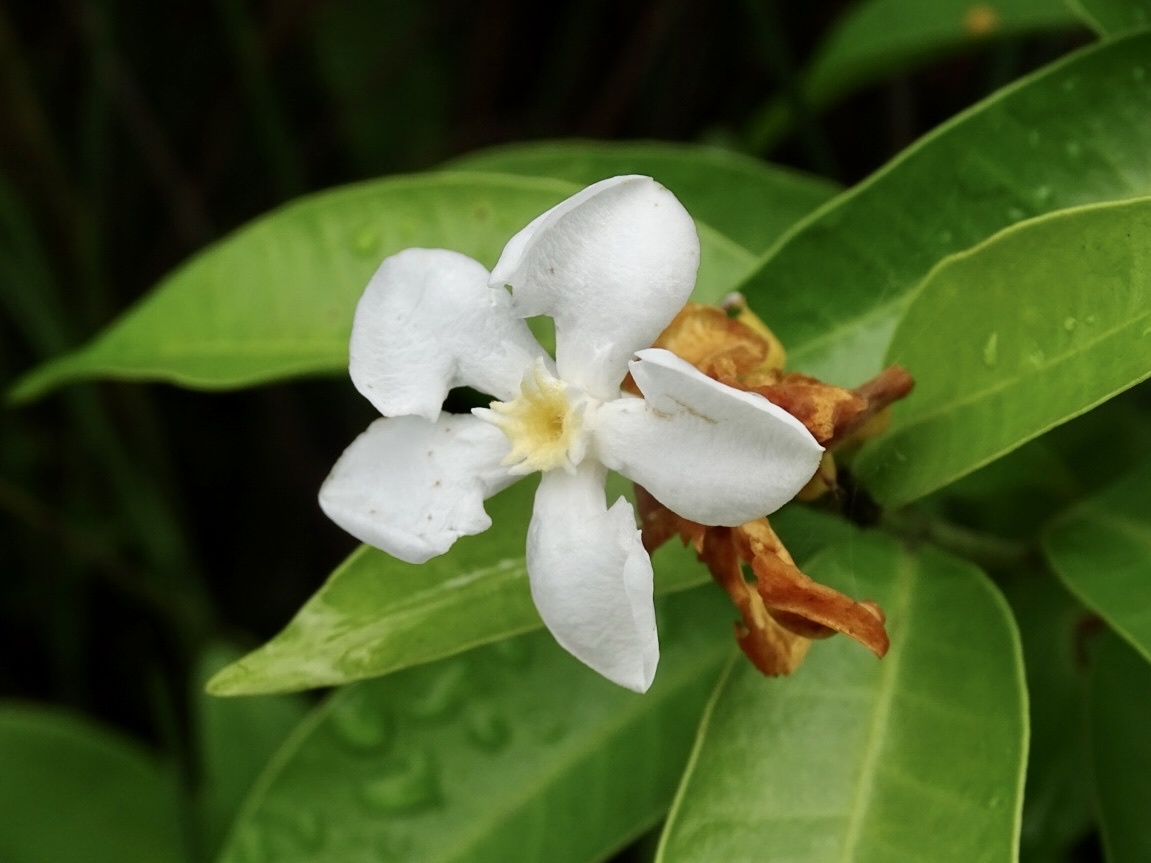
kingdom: Plantae
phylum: Tracheophyta
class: Magnoliopsida
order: Gentianales
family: Apocynaceae
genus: Melodinus
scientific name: Melodinus suaveolens
